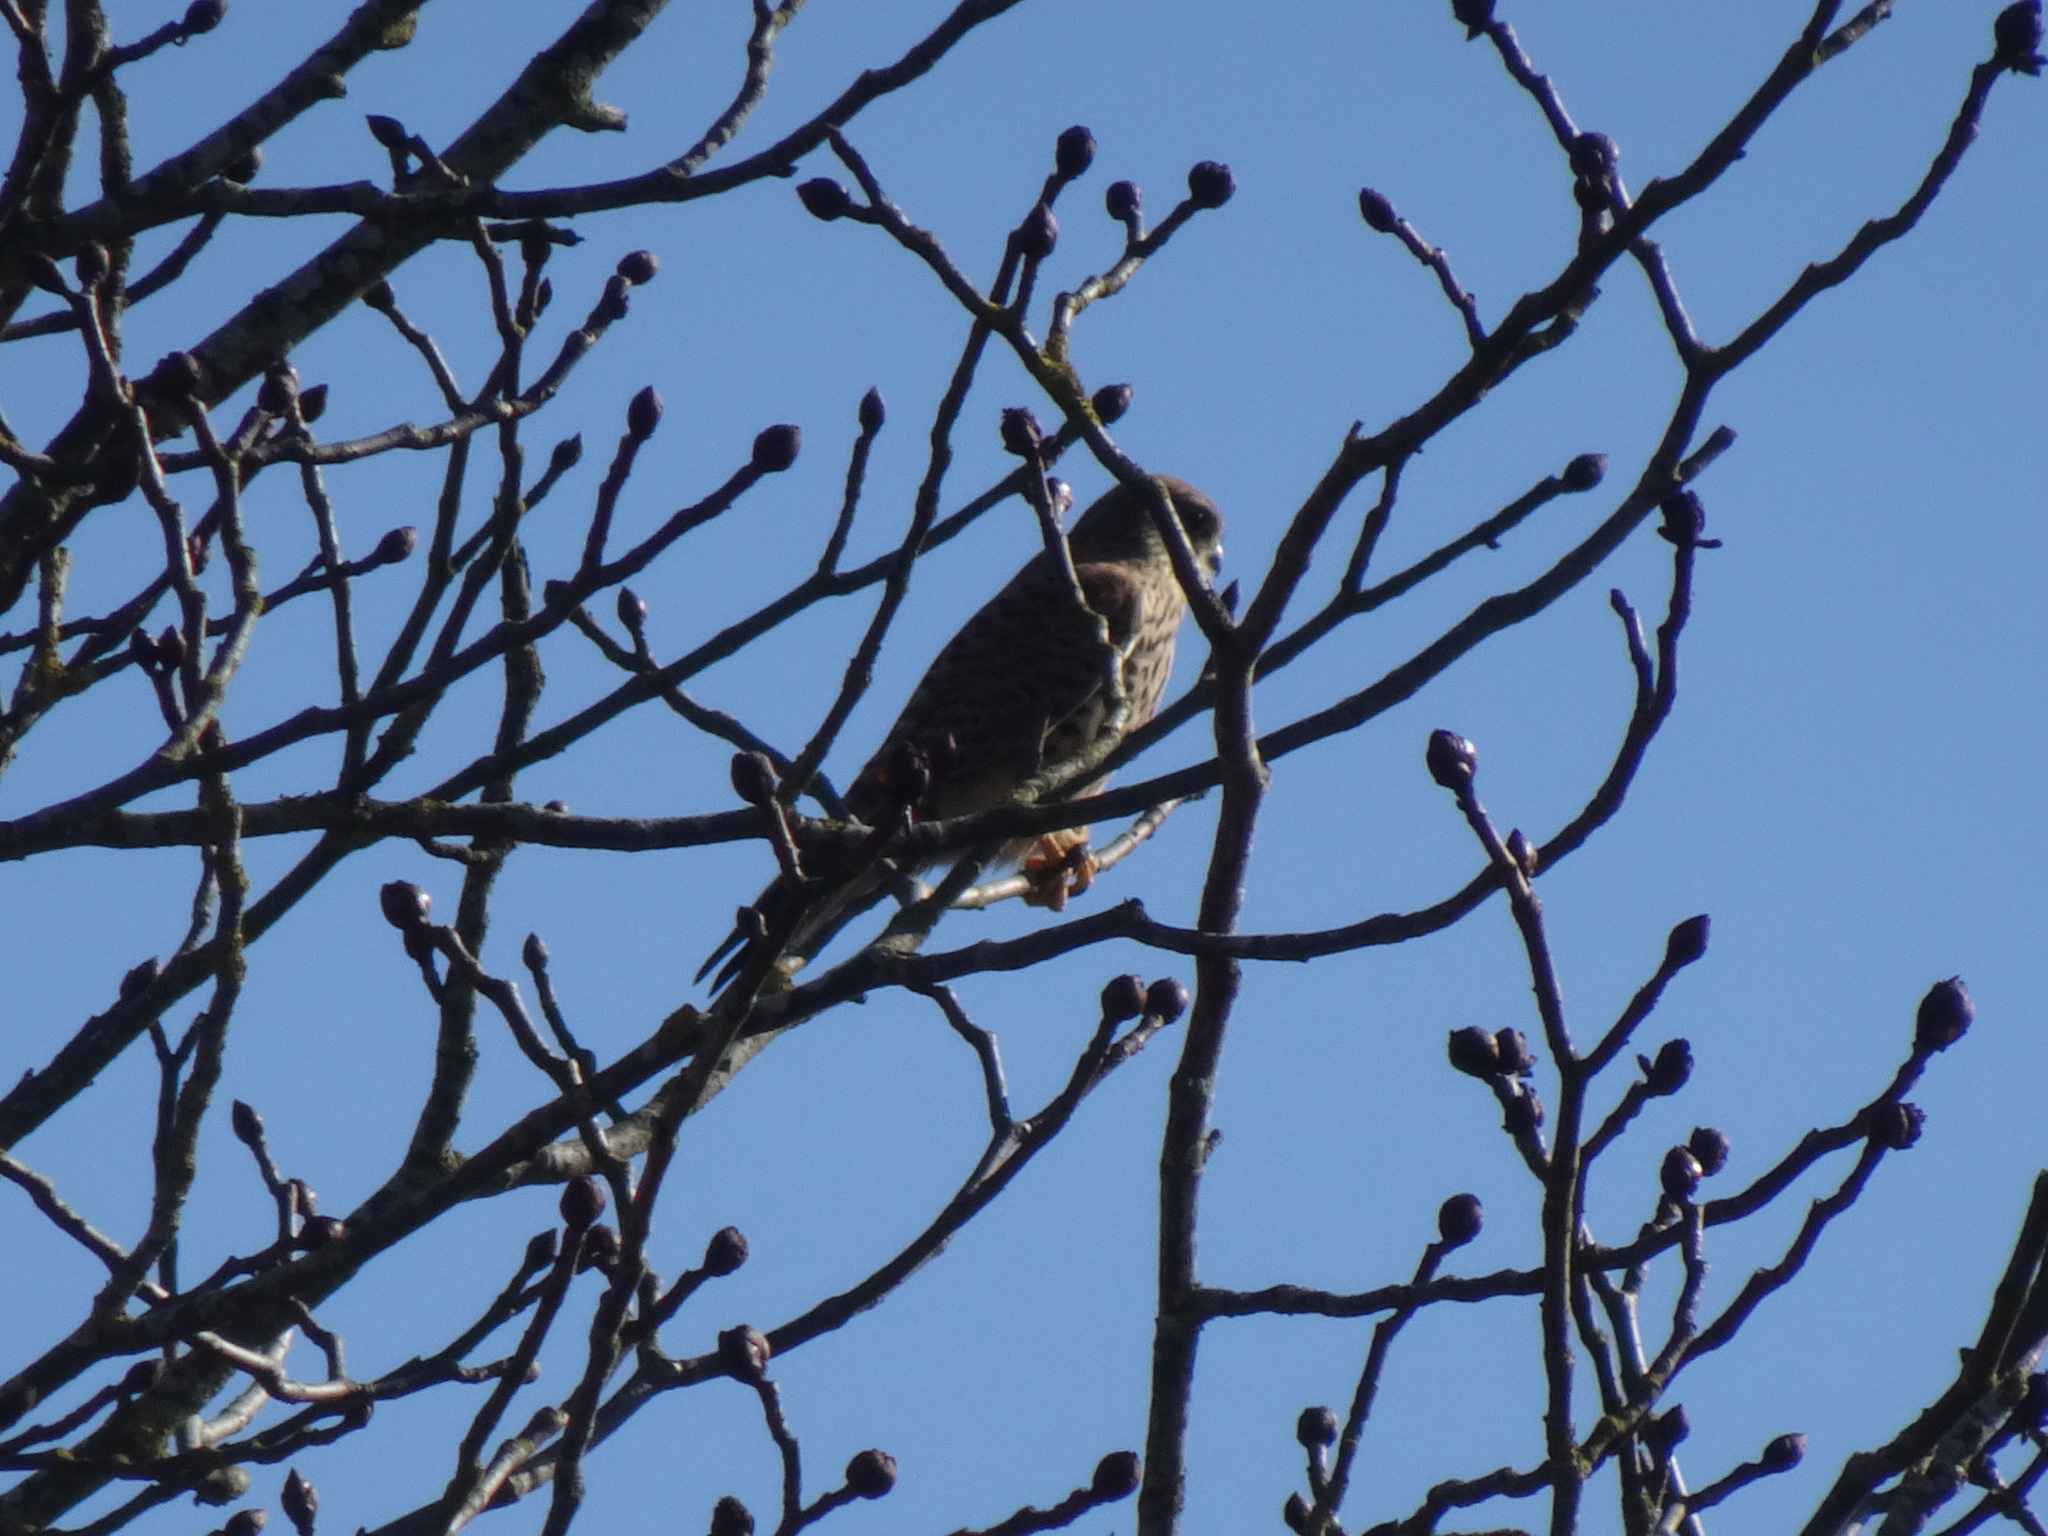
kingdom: Animalia
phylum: Chordata
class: Aves
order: Falconiformes
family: Falconidae
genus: Falco
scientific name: Falco tinnunculus
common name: Common kestrel
